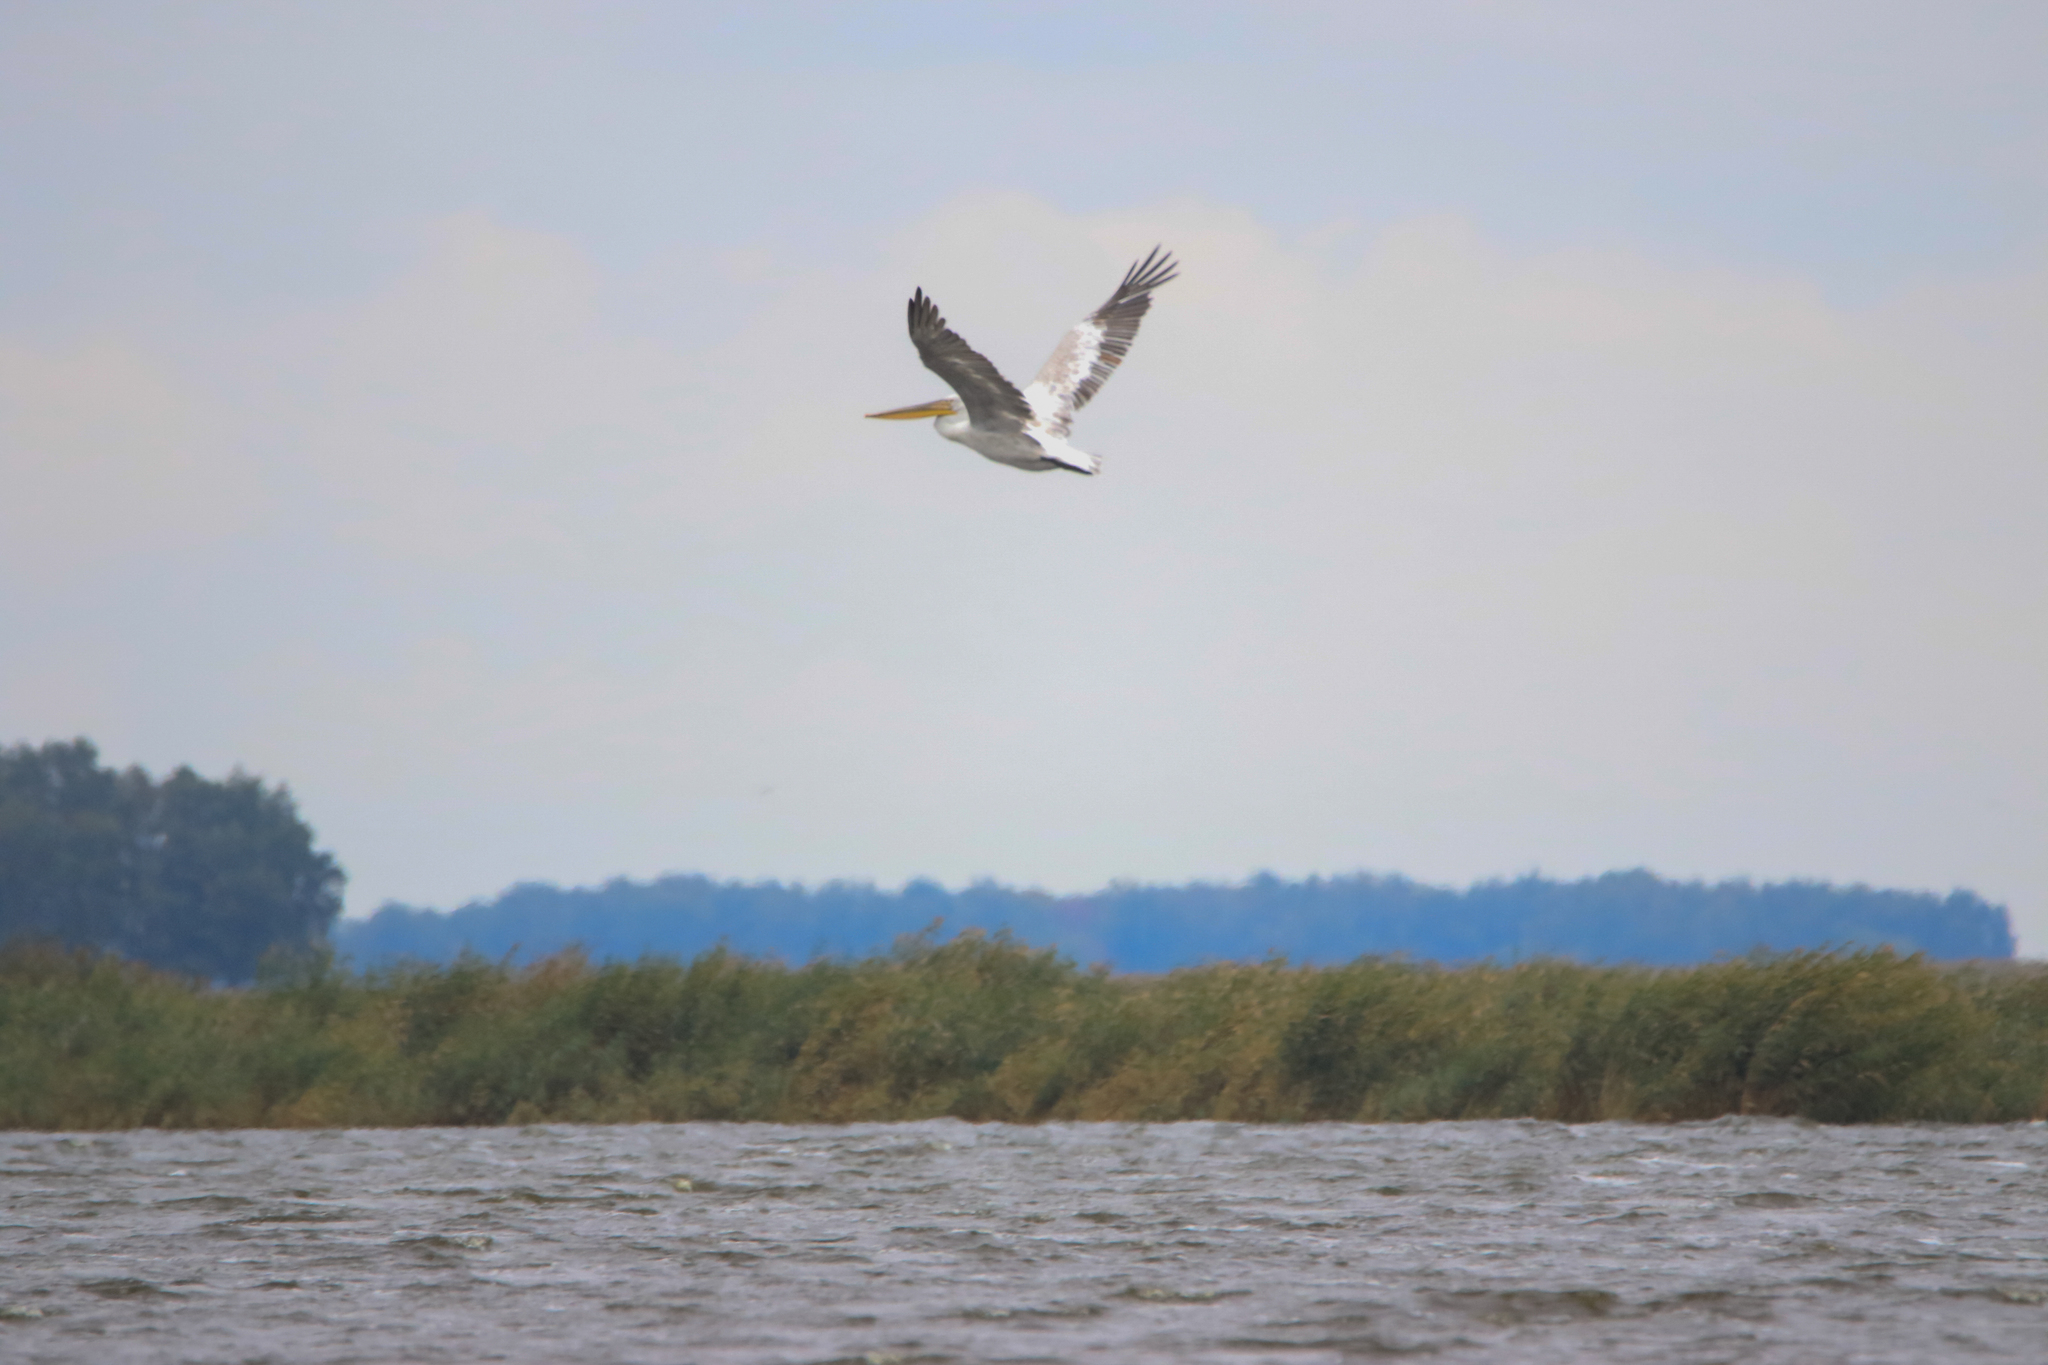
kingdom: Animalia
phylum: Chordata
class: Aves
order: Pelecaniformes
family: Pelecanidae
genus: Pelecanus
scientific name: Pelecanus crispus
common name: Dalmatian pelican
